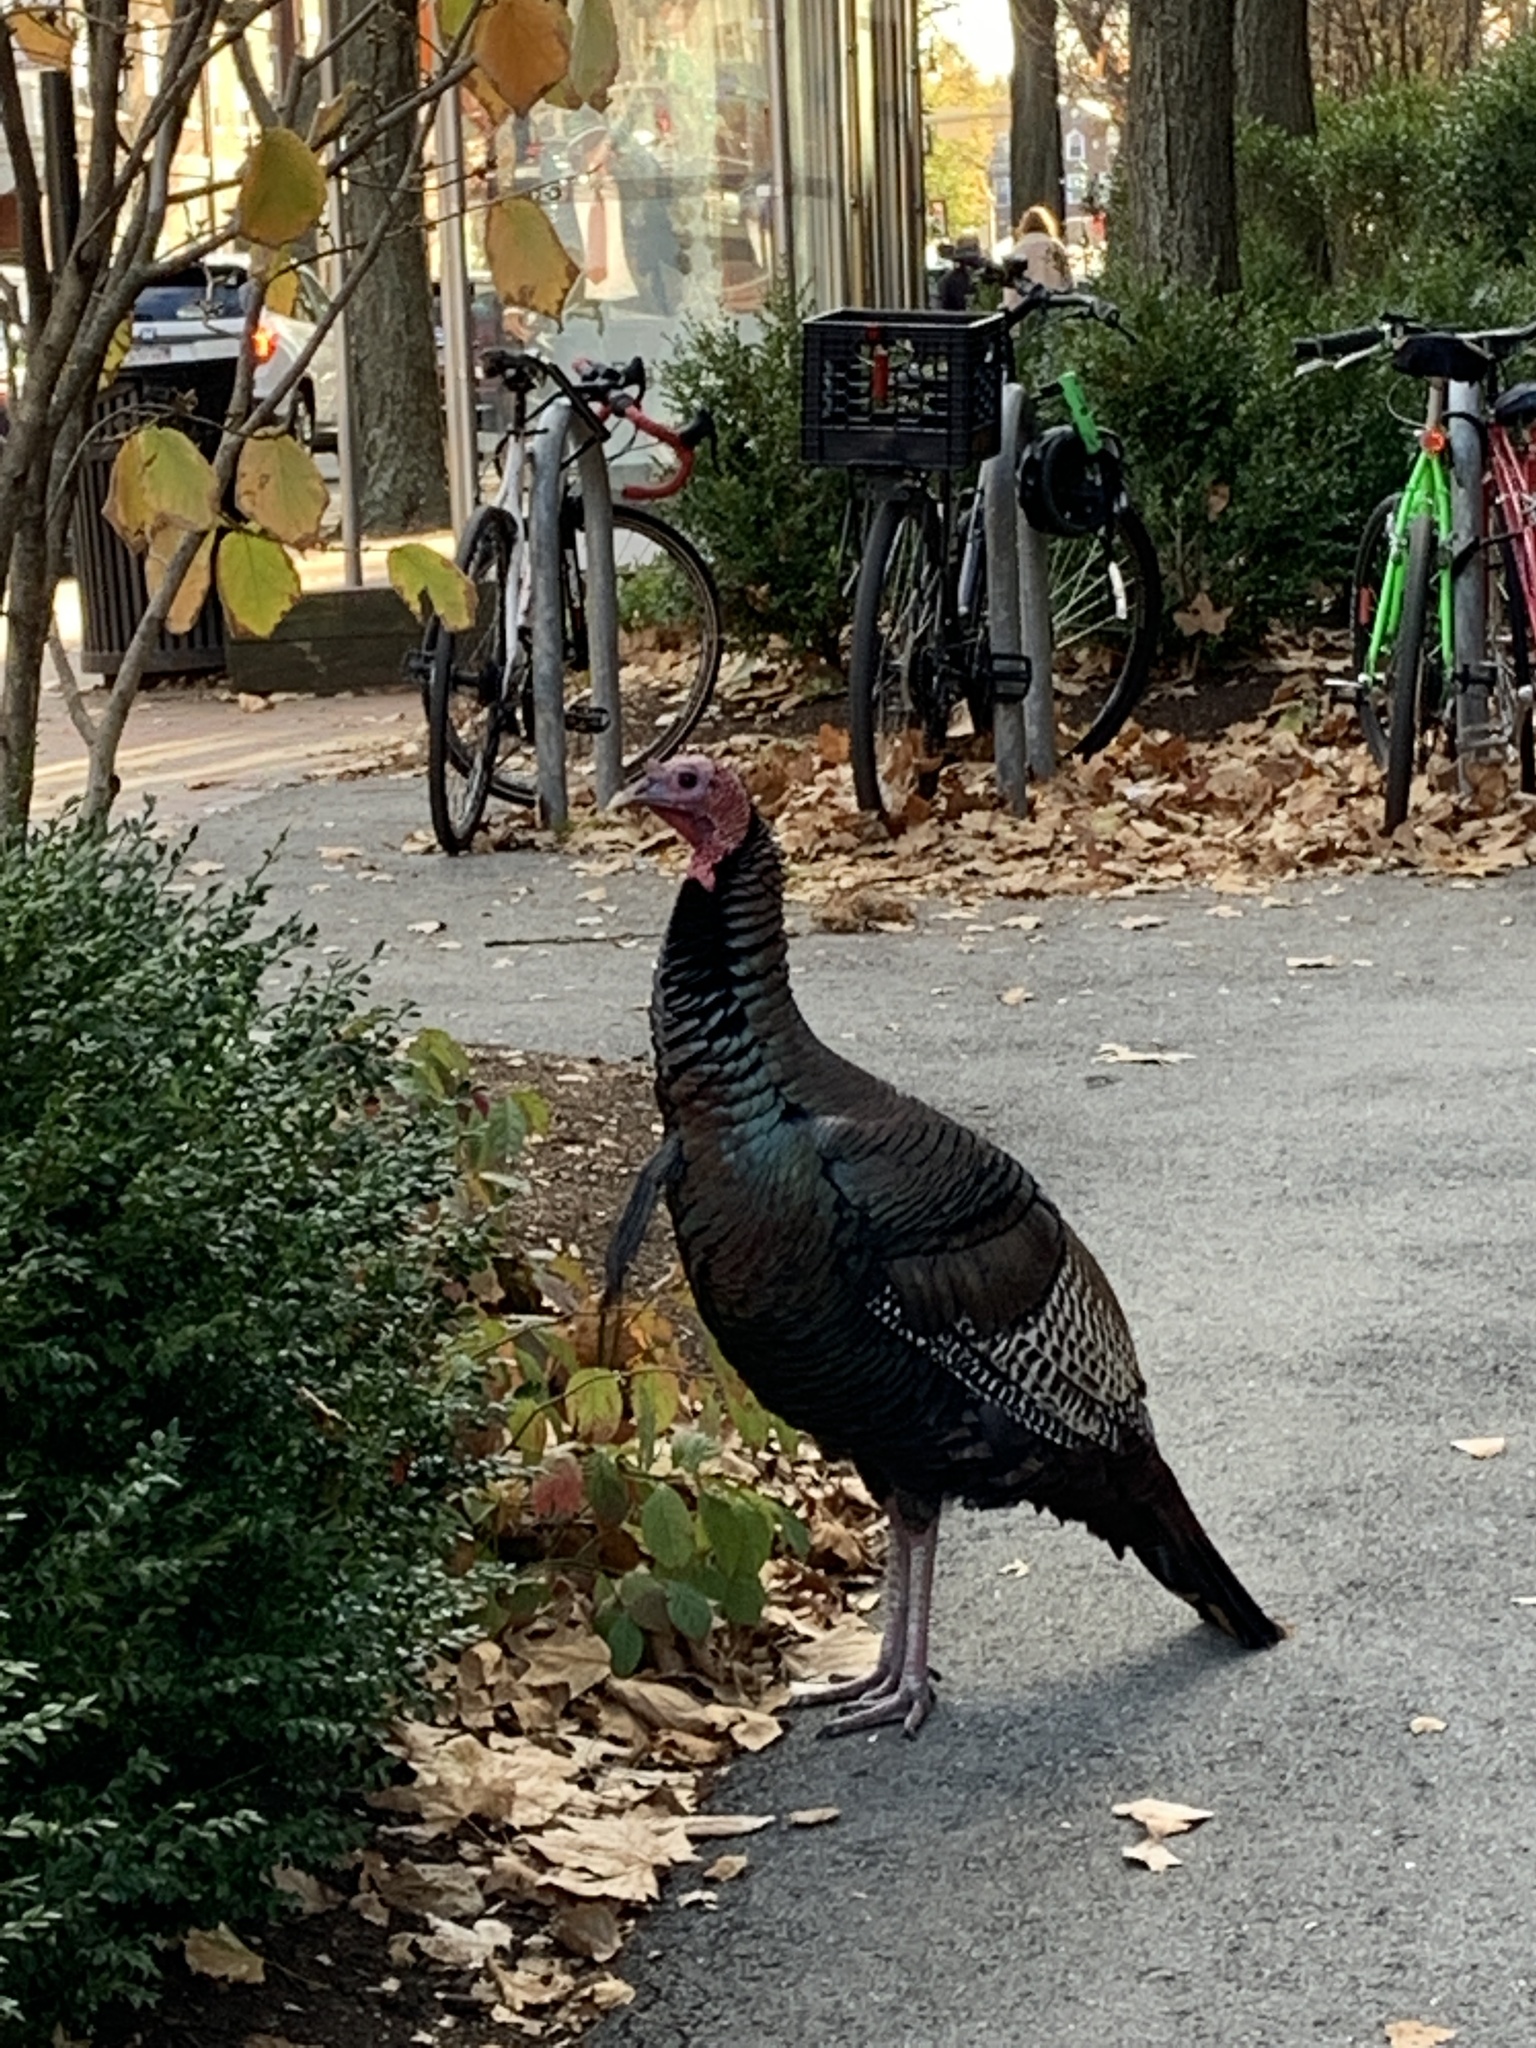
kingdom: Animalia
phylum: Chordata
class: Aves
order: Galliformes
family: Phasianidae
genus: Meleagris
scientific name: Meleagris gallopavo
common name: Wild turkey
